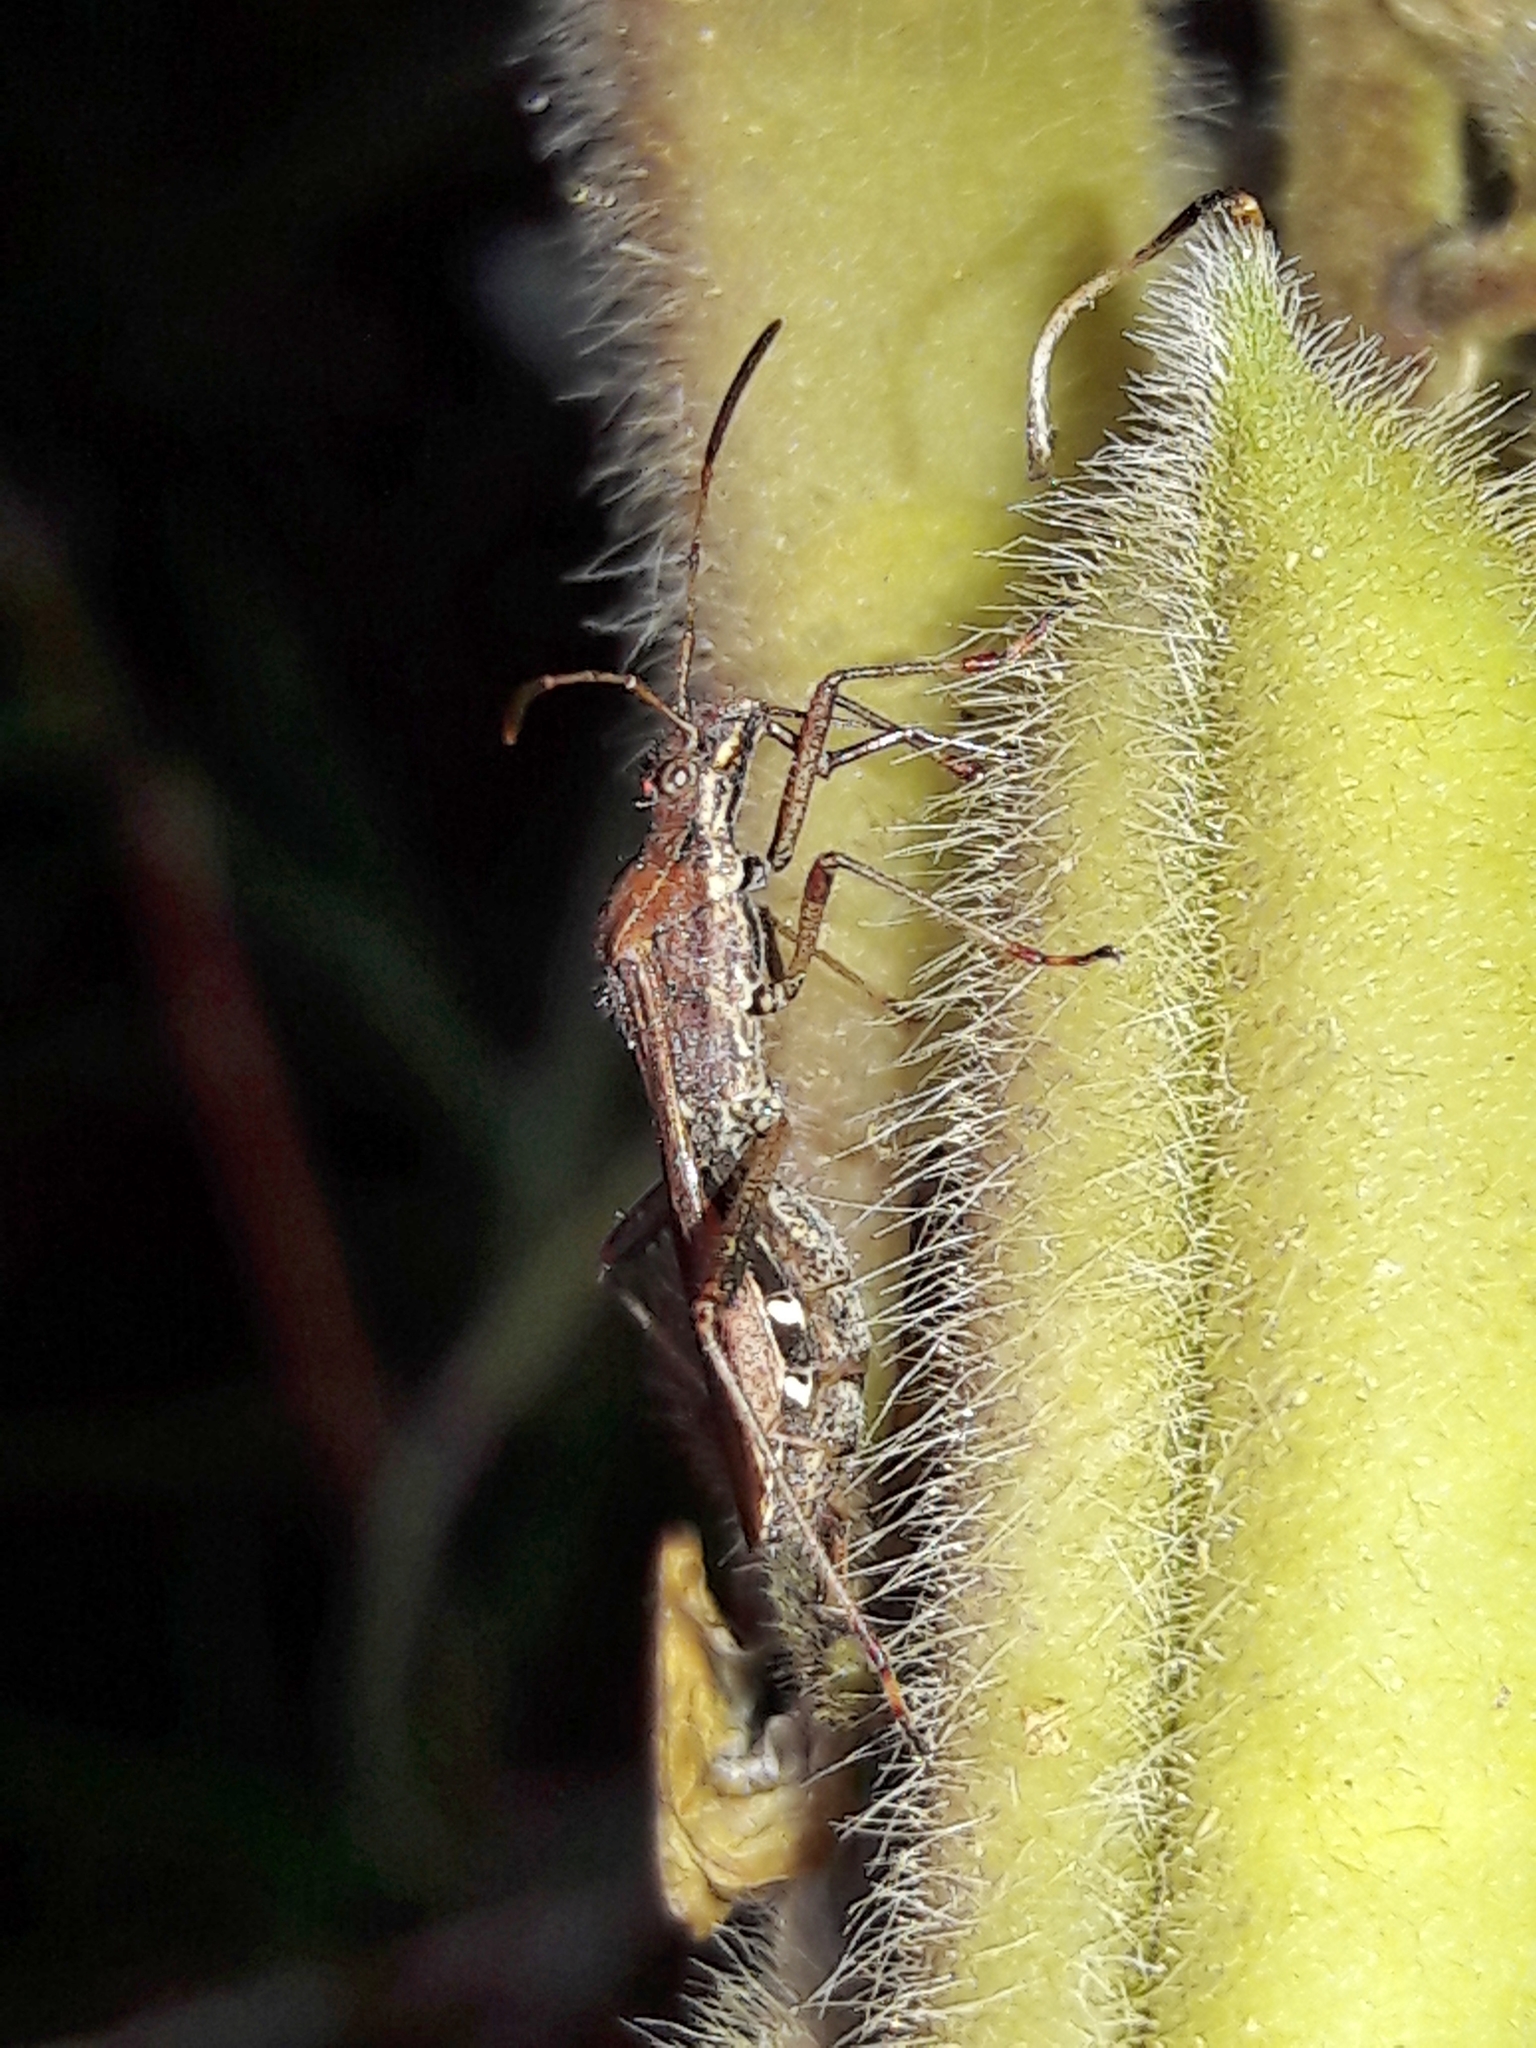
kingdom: Animalia
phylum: Arthropoda
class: Insecta
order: Hemiptera
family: Alydidae
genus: Neomegalotomus
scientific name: Neomegalotomus parvus
